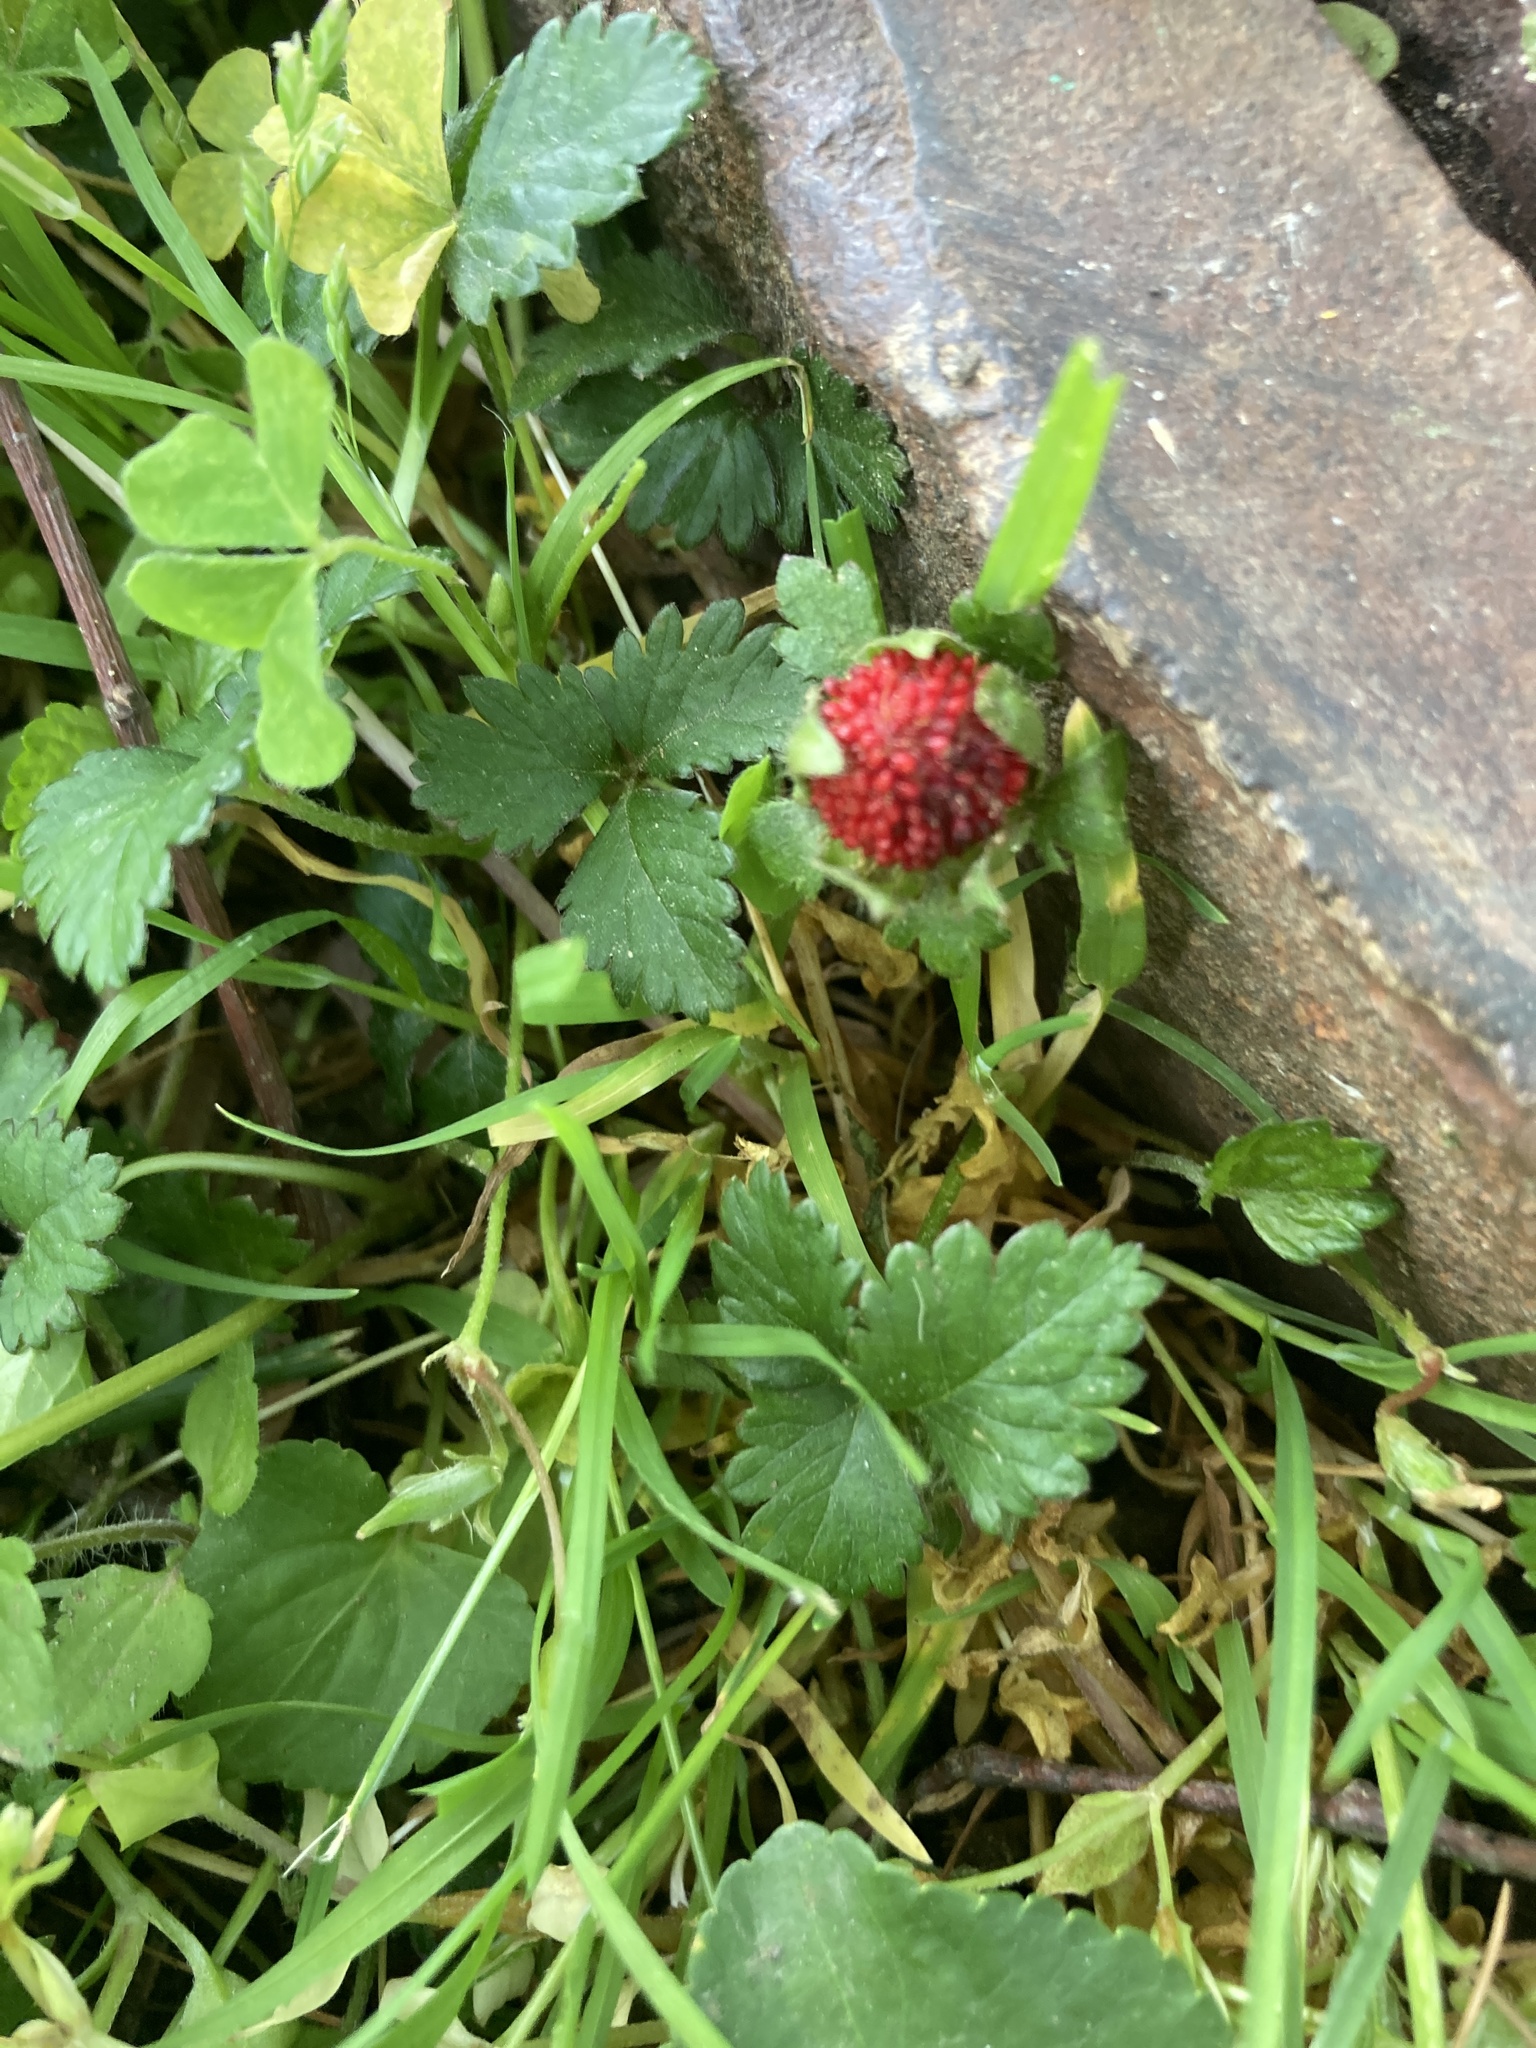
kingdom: Plantae
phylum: Tracheophyta
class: Magnoliopsida
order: Rosales
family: Rosaceae
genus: Potentilla
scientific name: Potentilla indica
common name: Yellow-flowered strawberry
